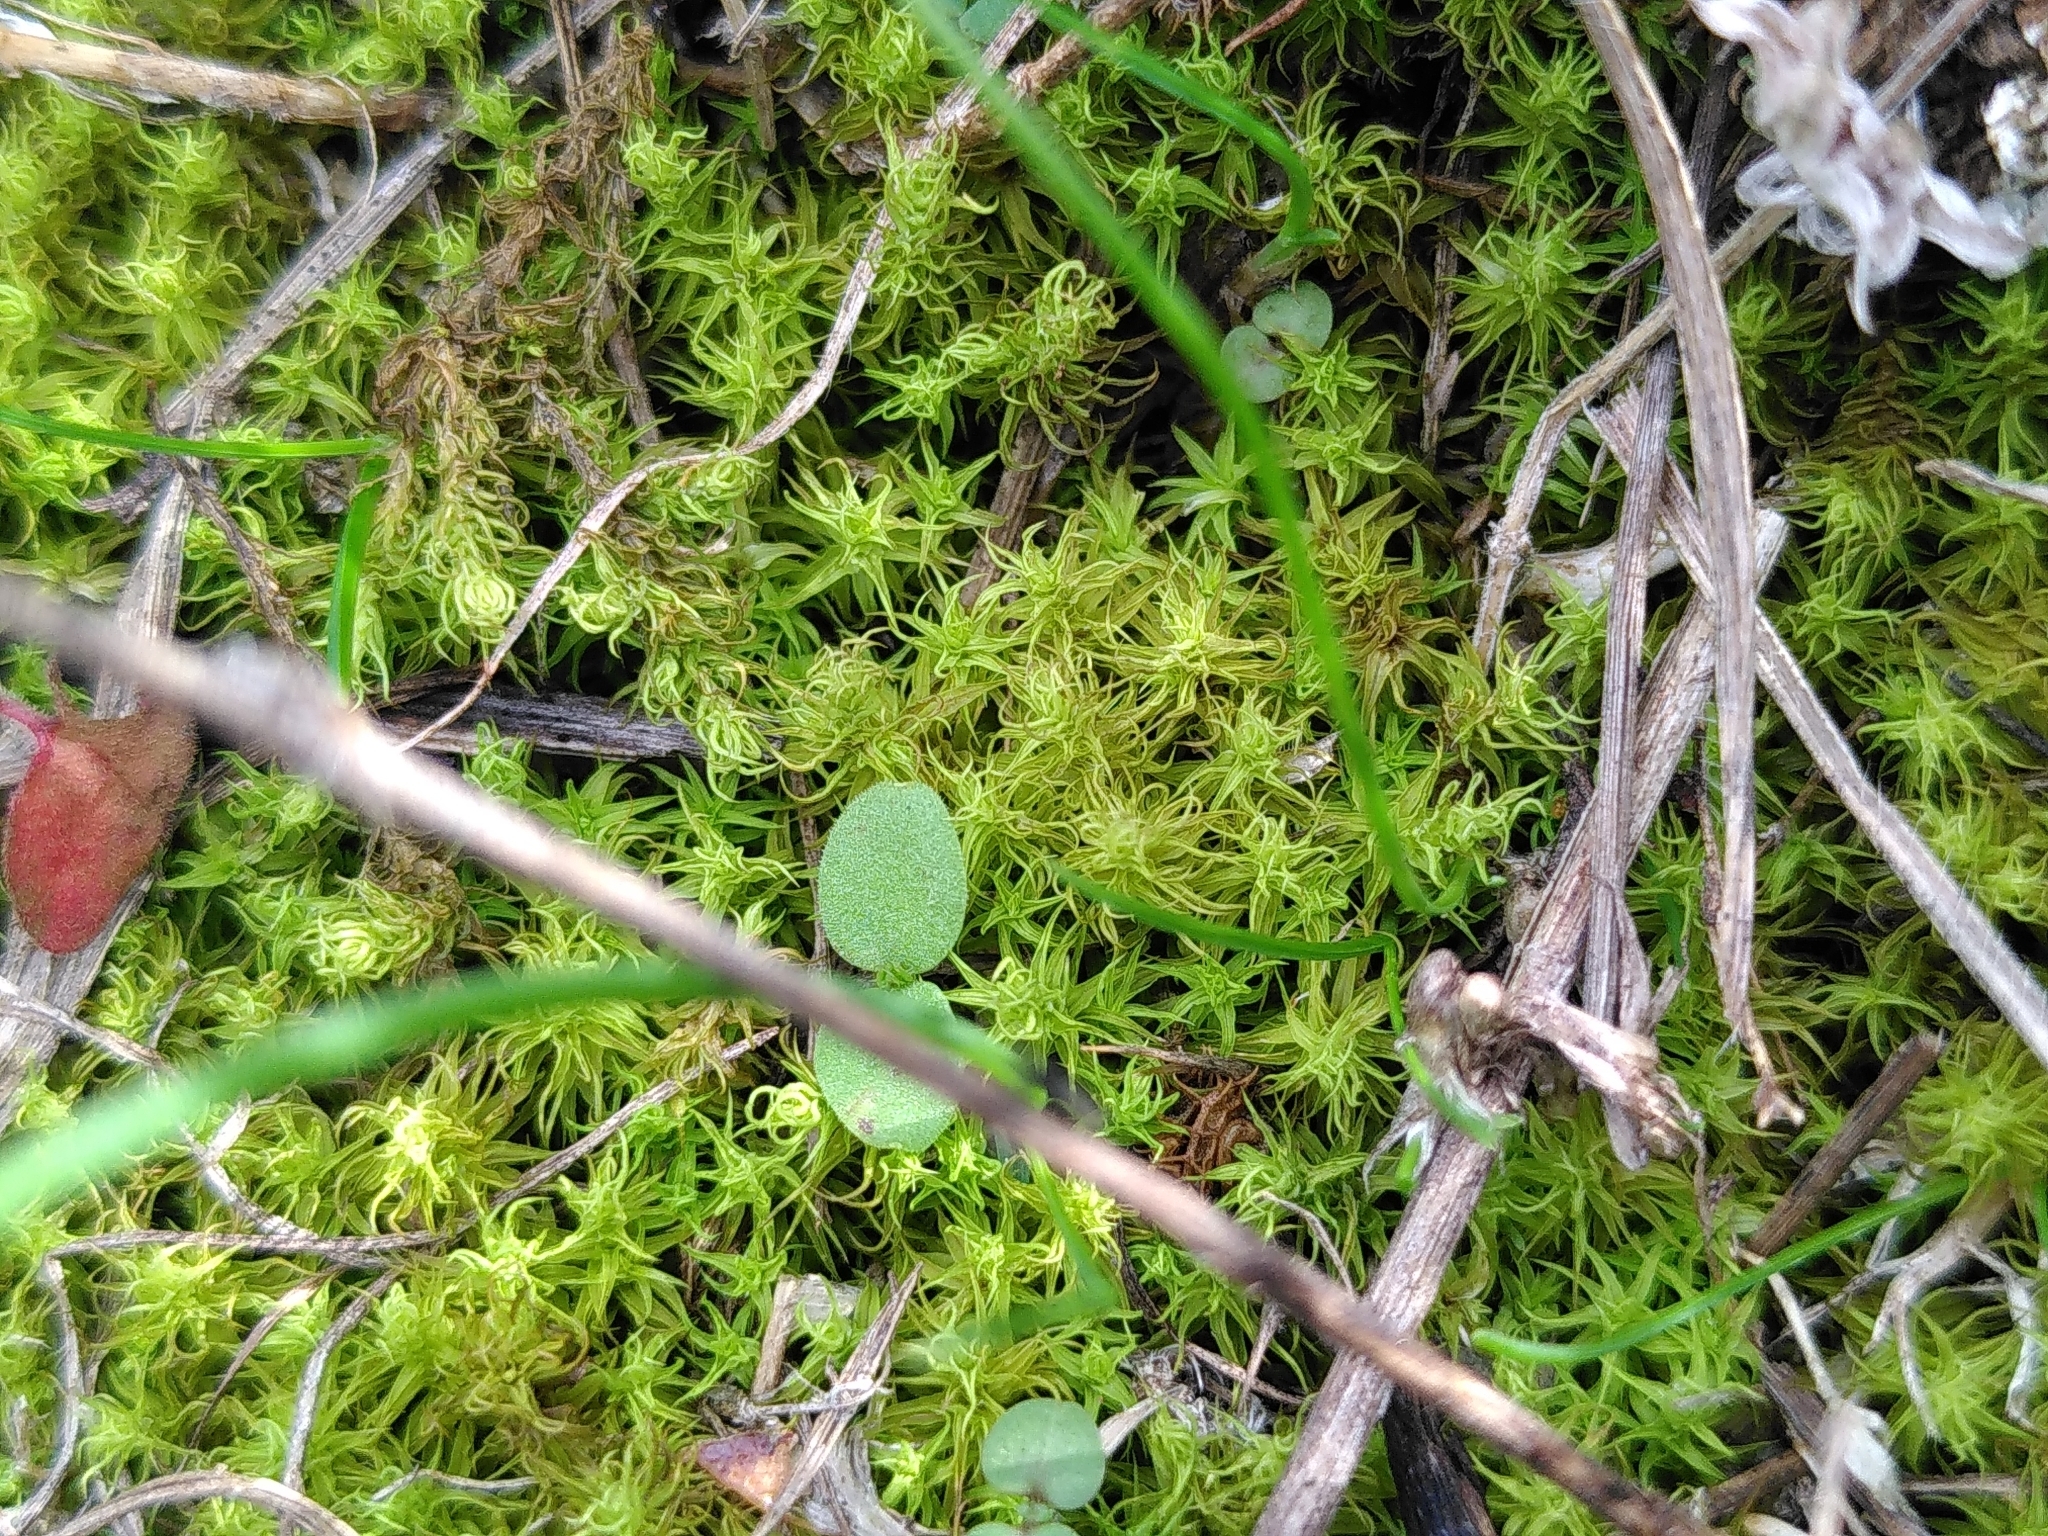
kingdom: Plantae
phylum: Bryophyta
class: Bryopsida
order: Pottiales
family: Pottiaceae
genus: Pleurochaete
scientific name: Pleurochaete squarrosa
